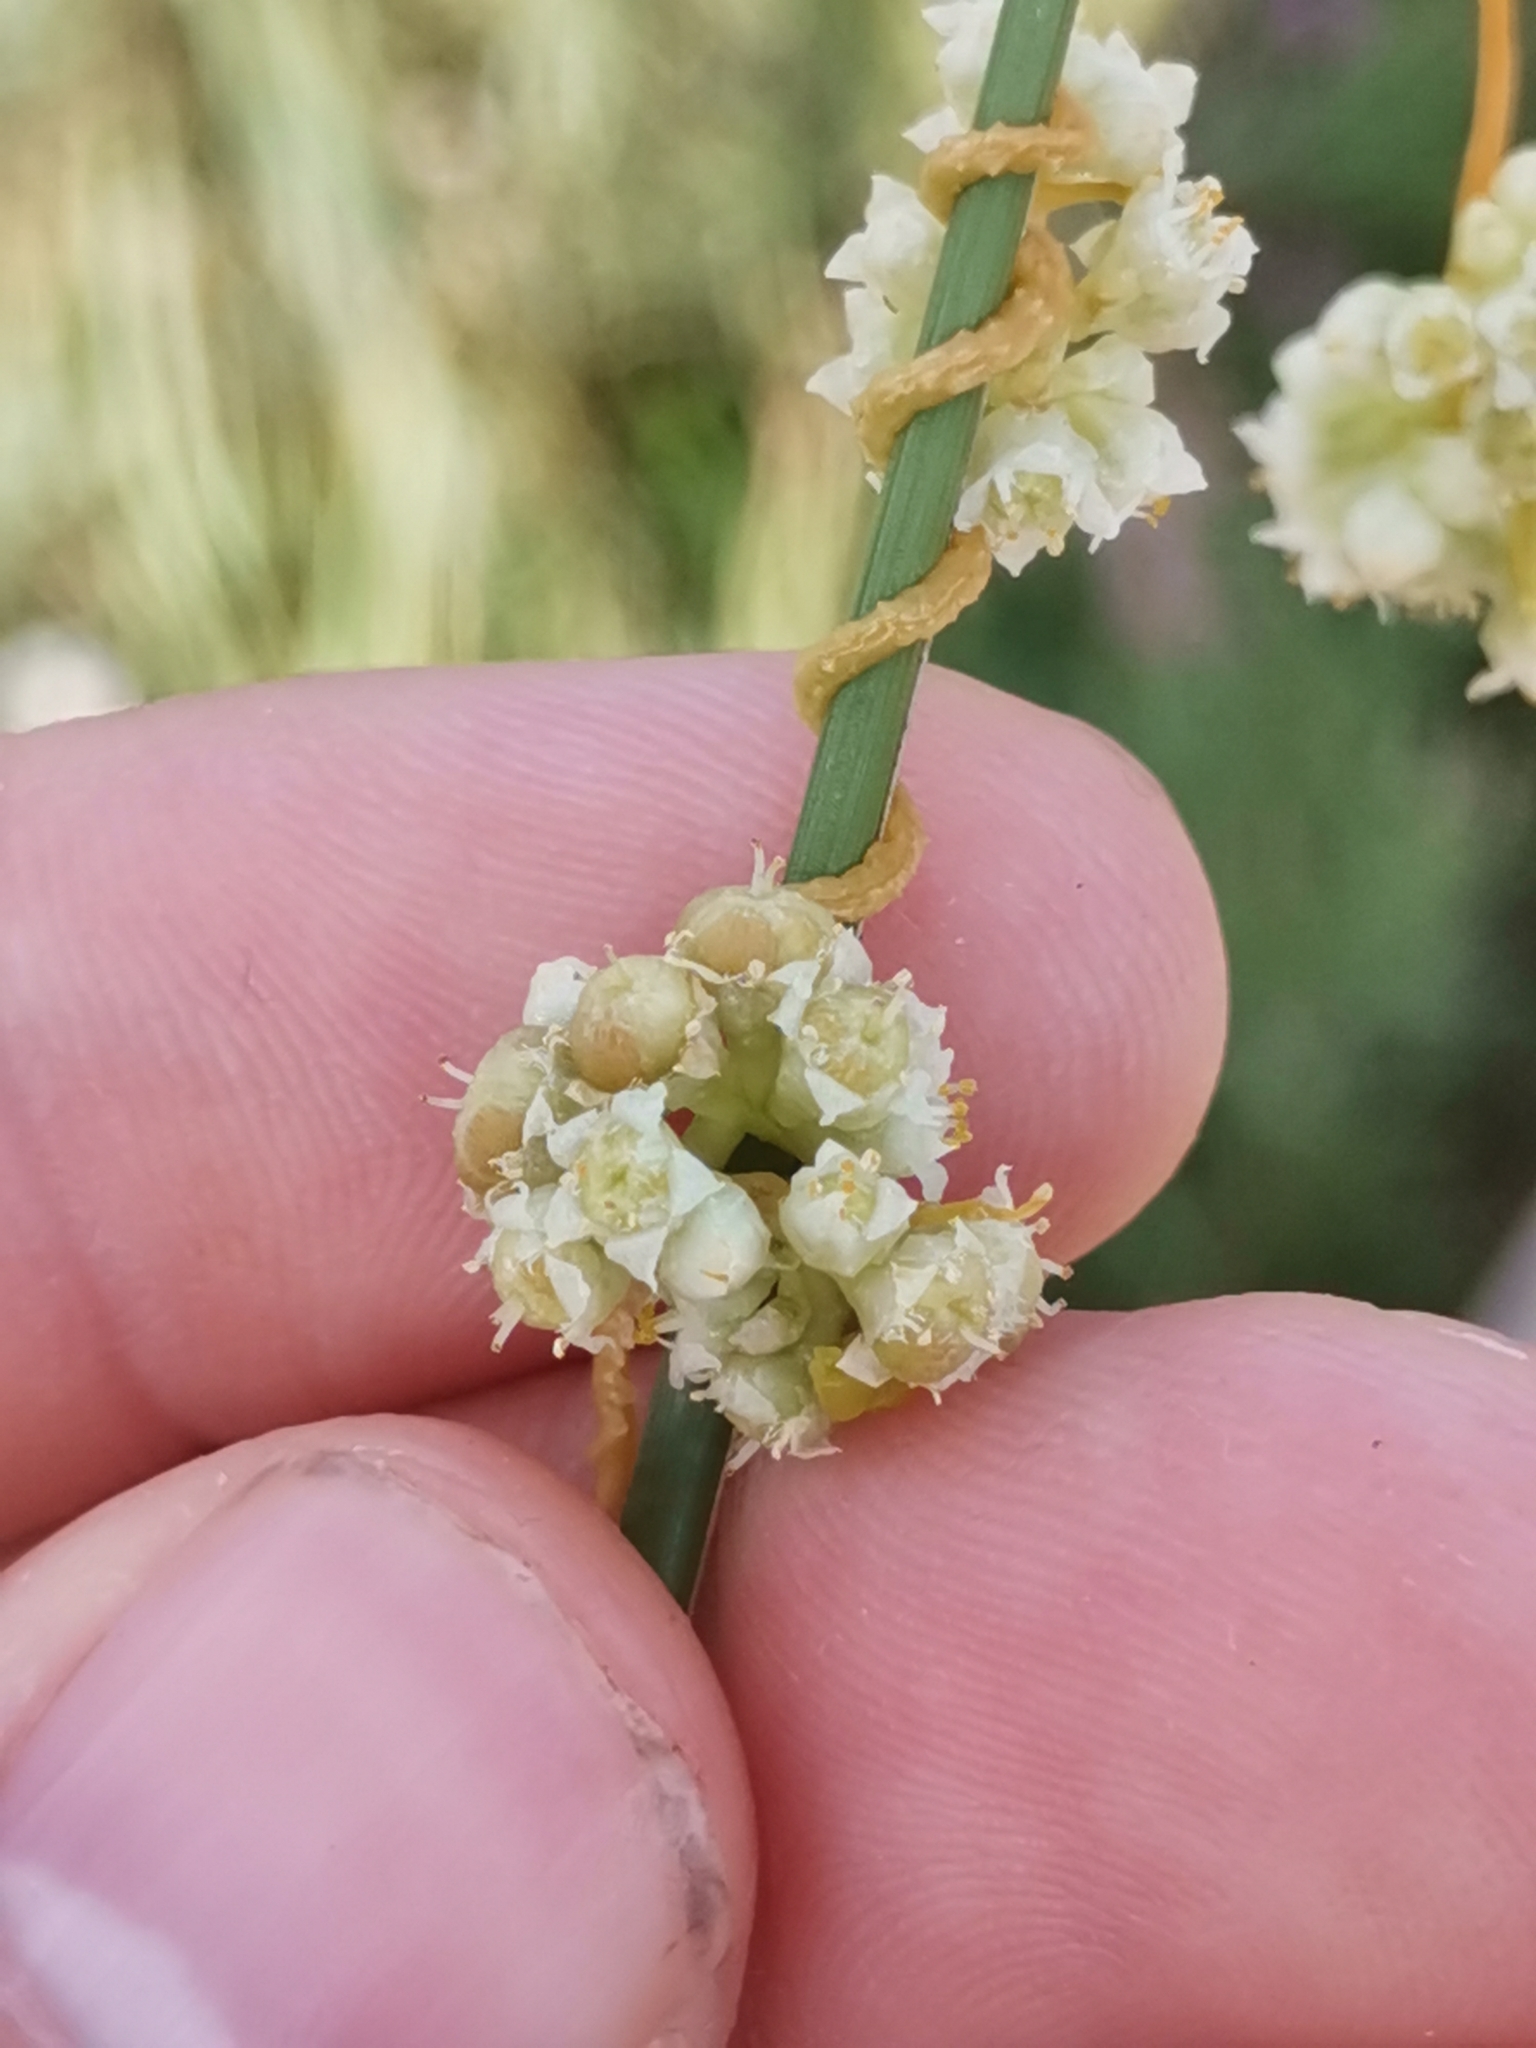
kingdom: Plantae
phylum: Tracheophyta
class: Magnoliopsida
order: Solanales
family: Convolvulaceae
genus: Cuscuta
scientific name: Cuscuta campestris
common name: Yellow dodder
